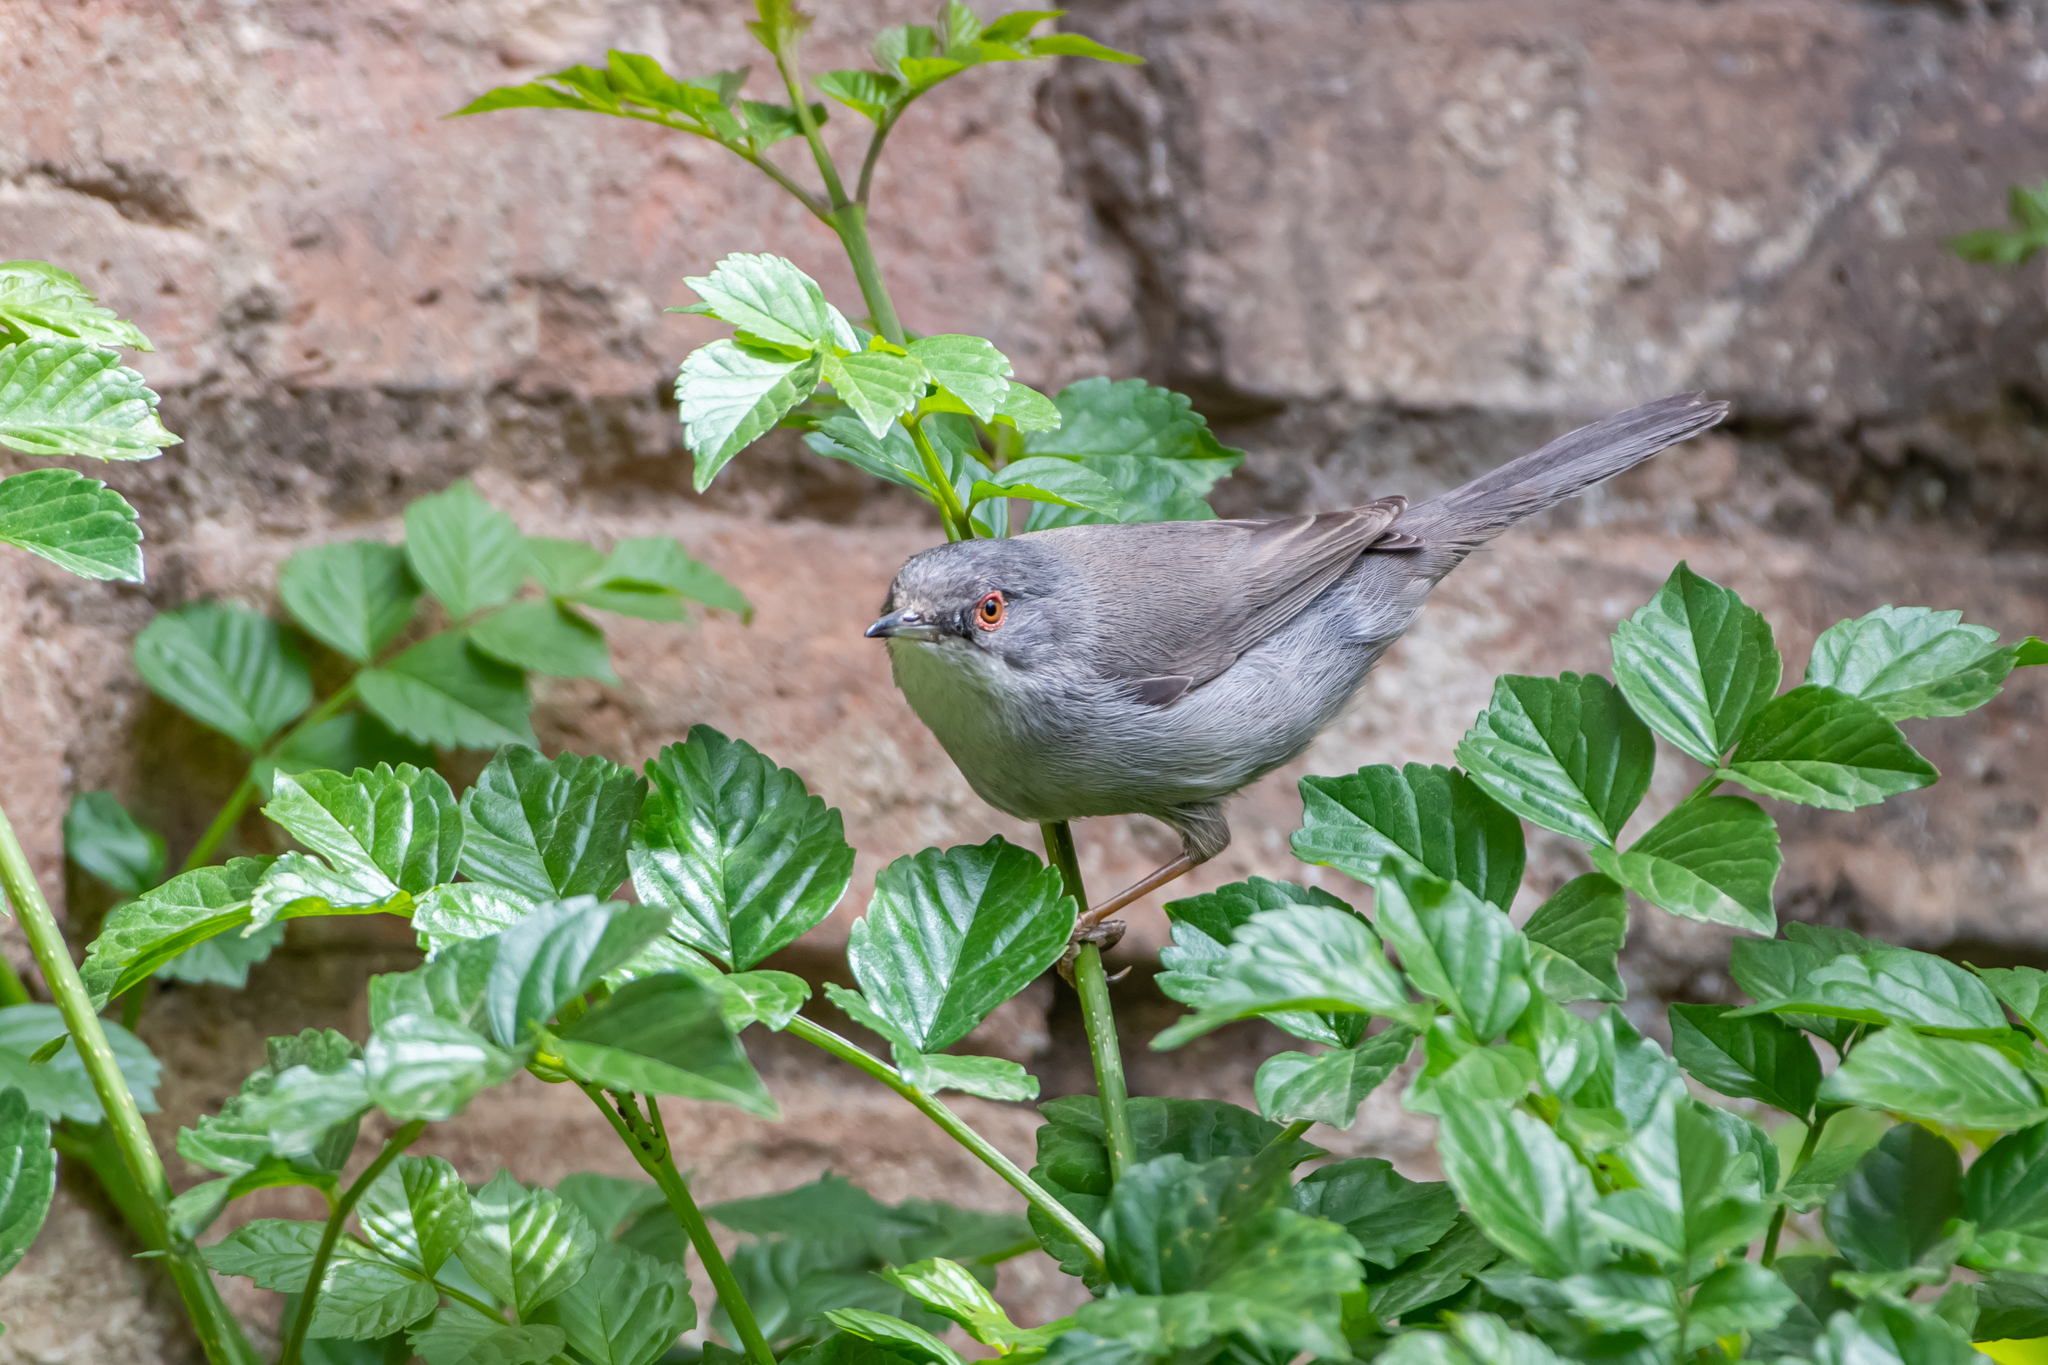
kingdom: Animalia
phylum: Chordata
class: Aves
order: Passeriformes
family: Sylviidae
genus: Curruca
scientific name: Curruca melanocephala
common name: Sardinian warbler
